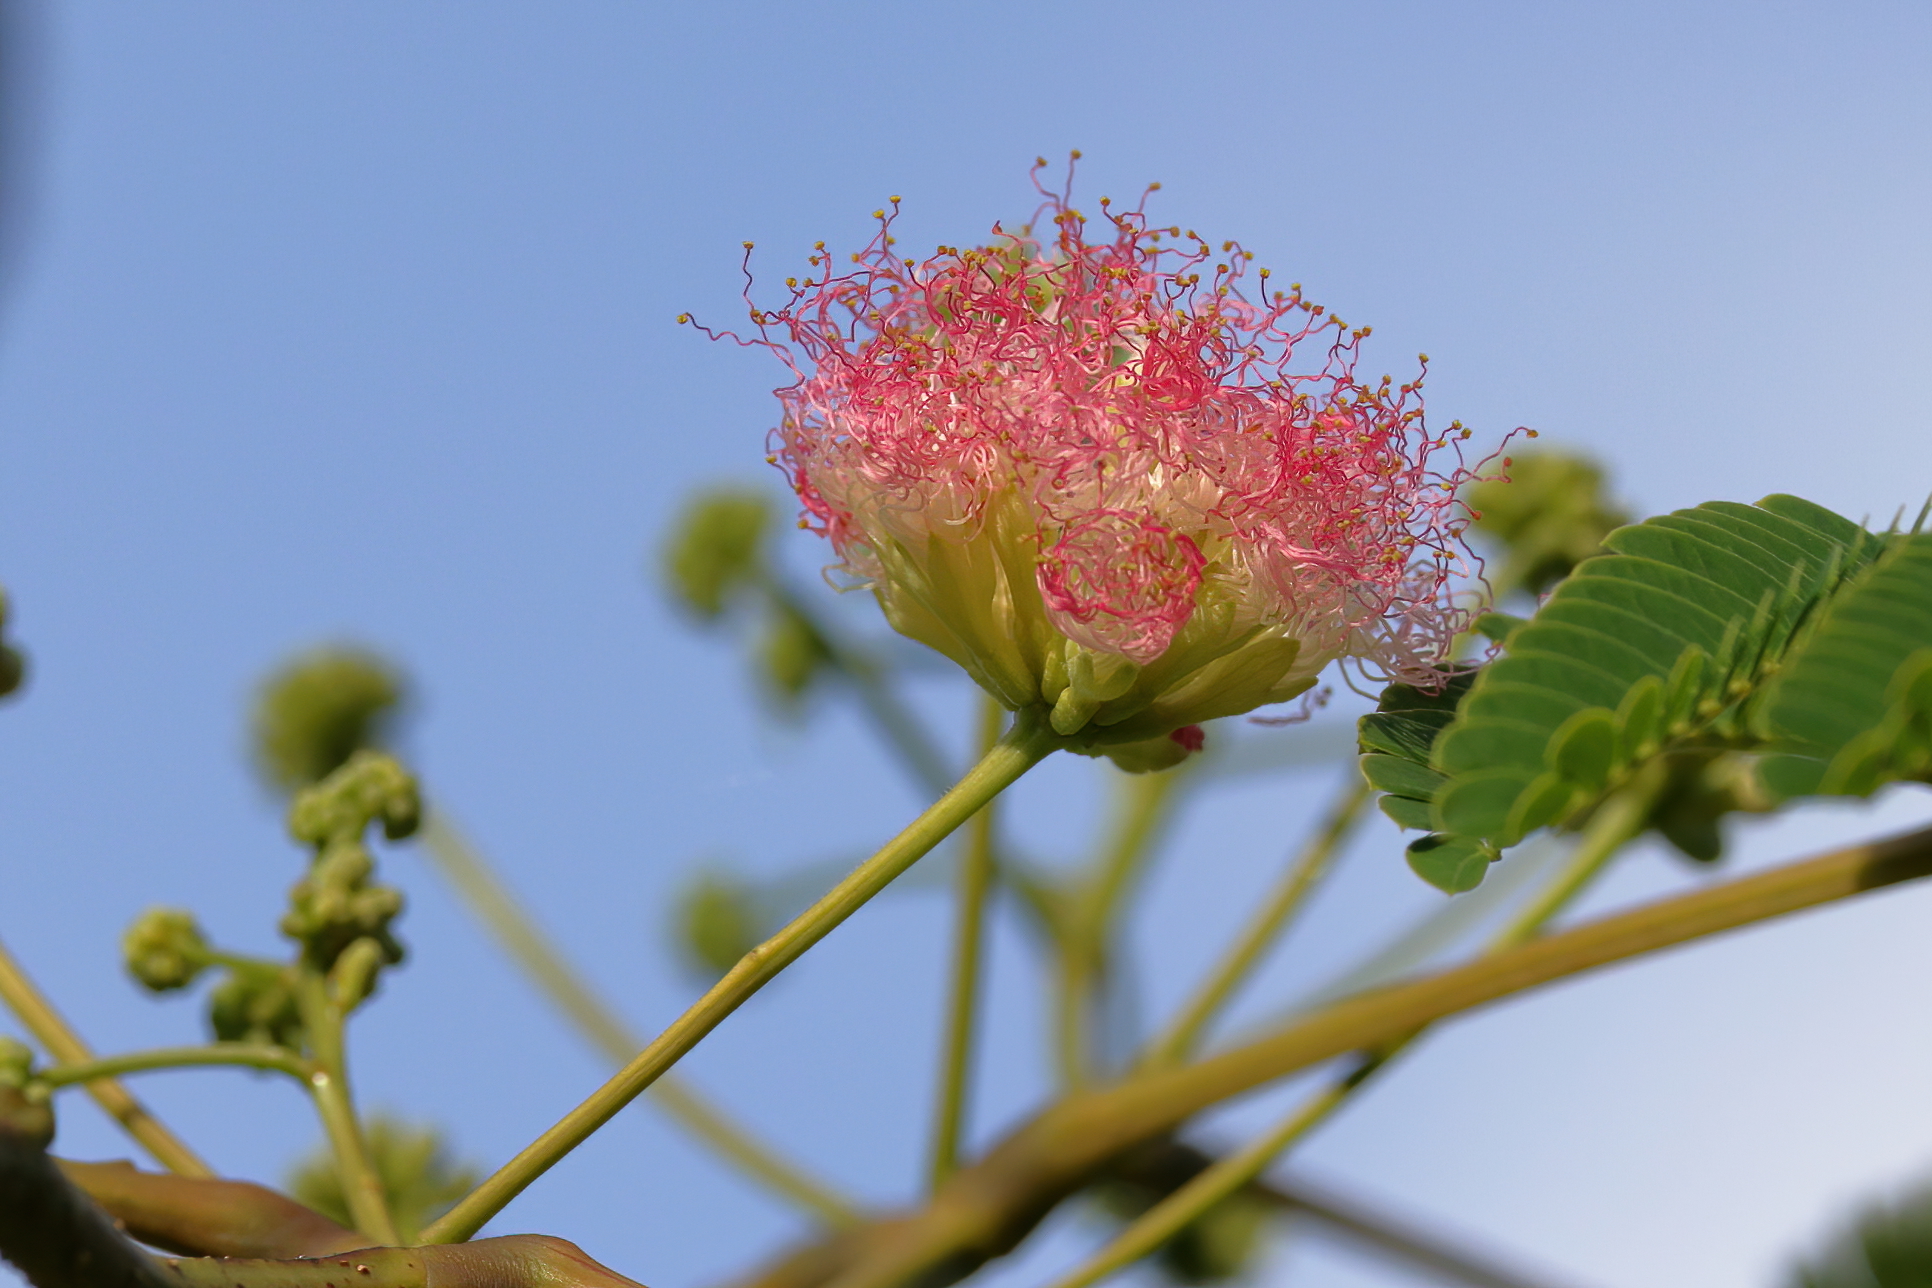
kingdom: Plantae
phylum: Tracheophyta
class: Magnoliopsida
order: Fabales
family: Fabaceae
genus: Albizia
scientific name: Albizia julibrissin
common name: Silktree
